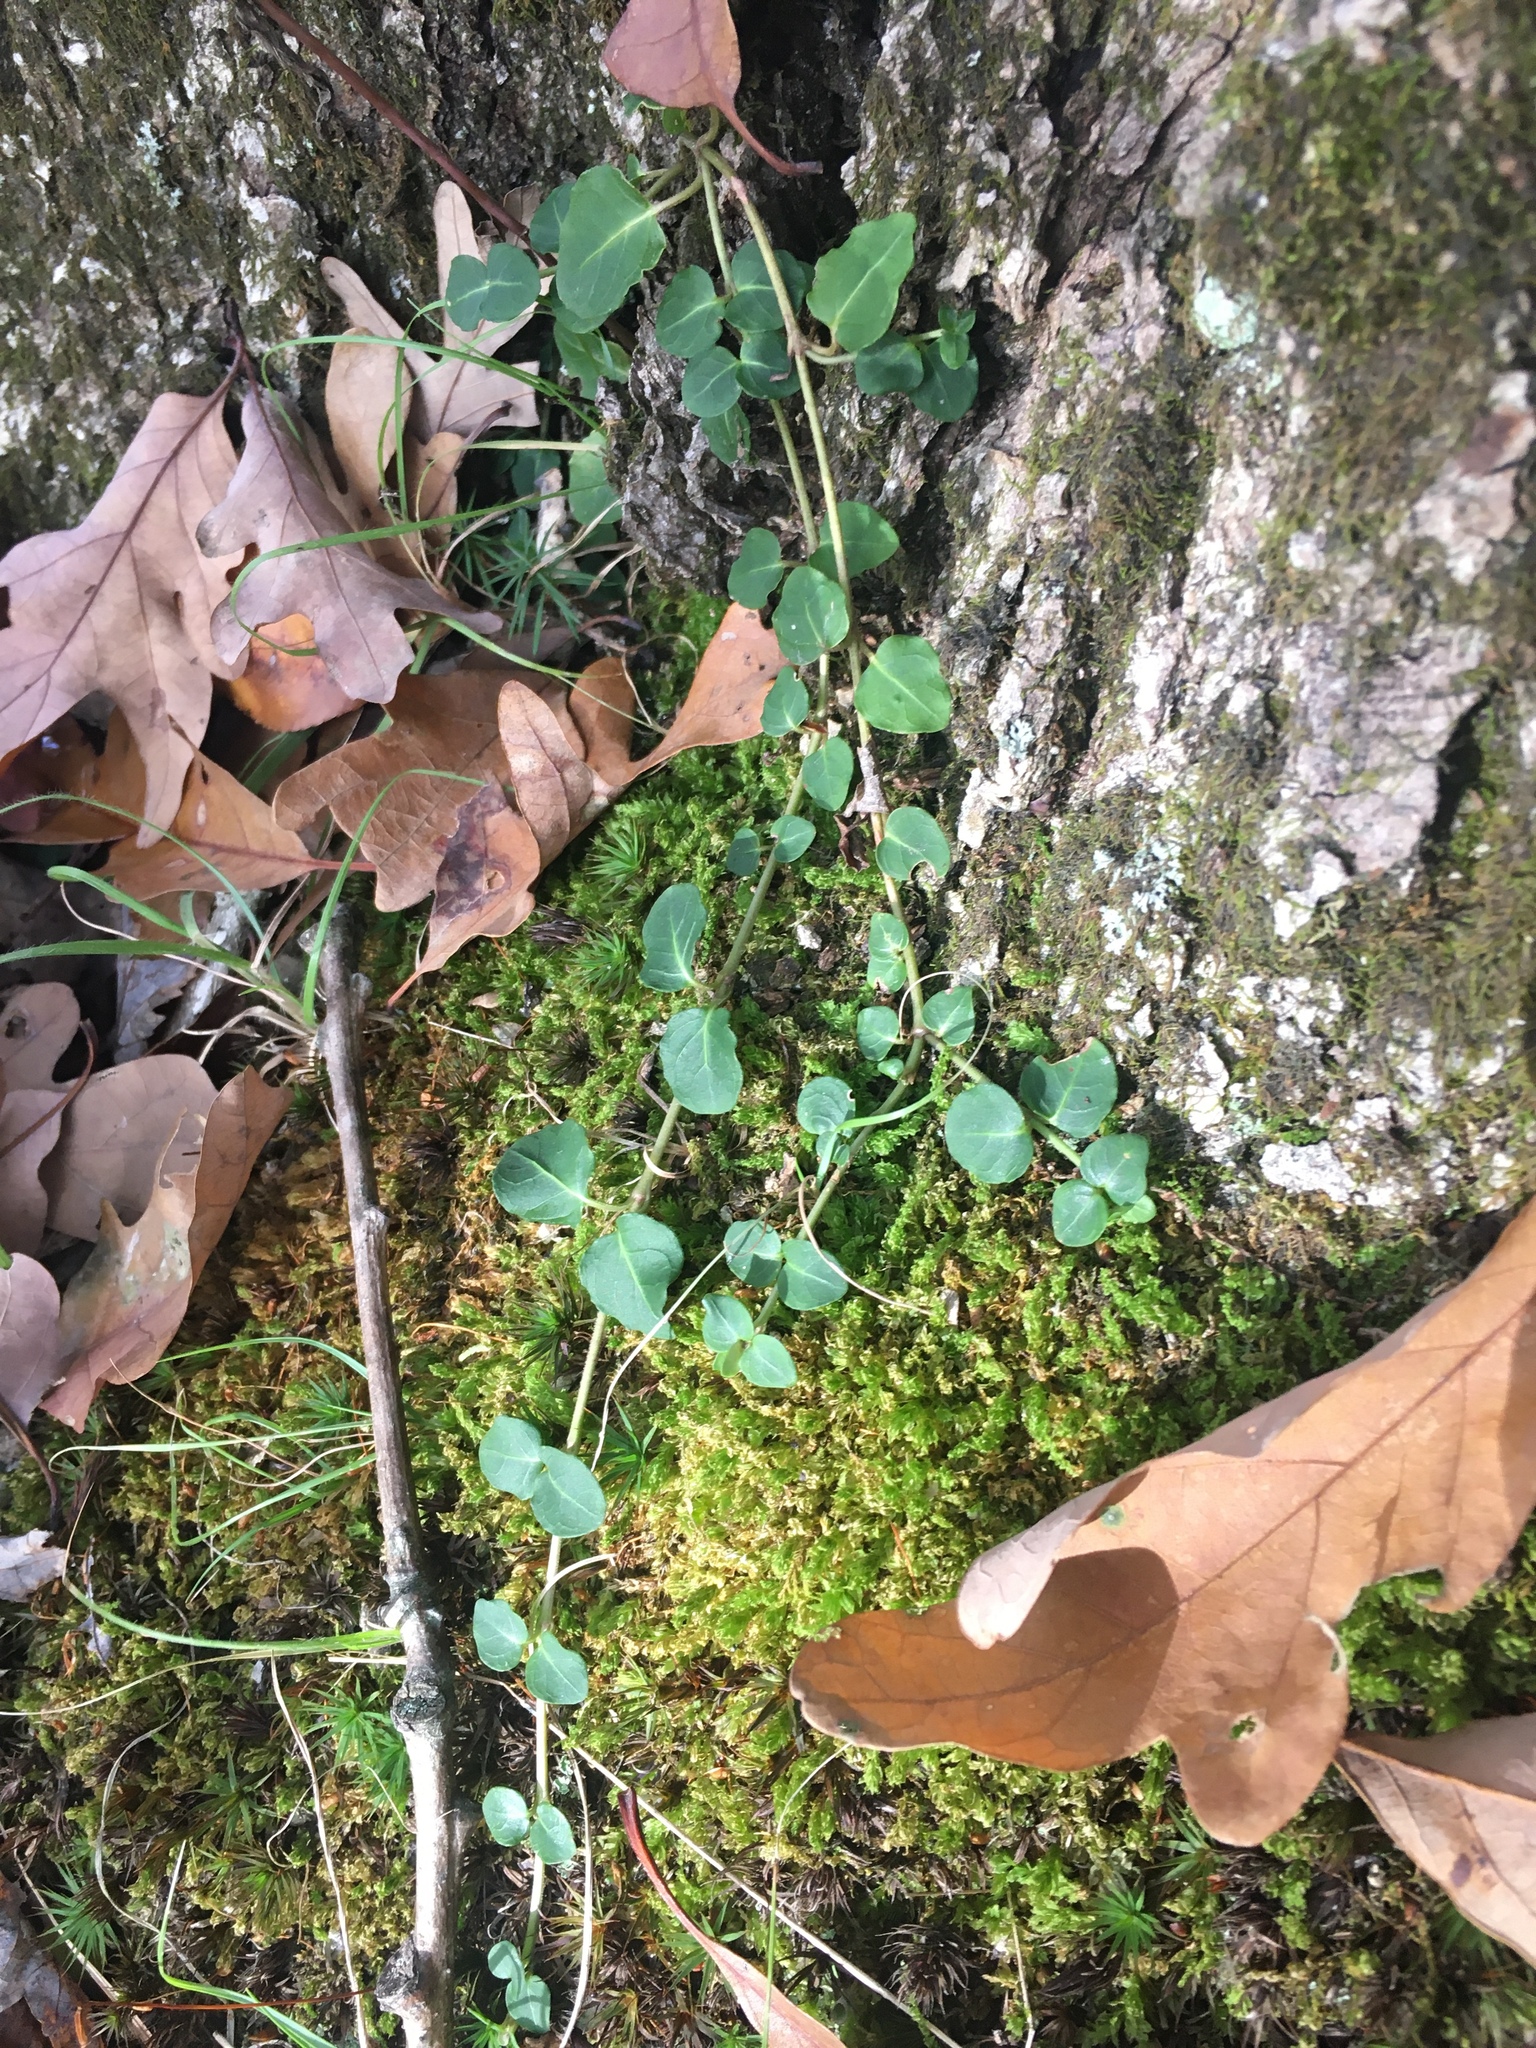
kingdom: Plantae
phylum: Tracheophyta
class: Magnoliopsida
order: Gentianales
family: Rubiaceae
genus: Mitchella
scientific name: Mitchella repens
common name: Partridge-berry
